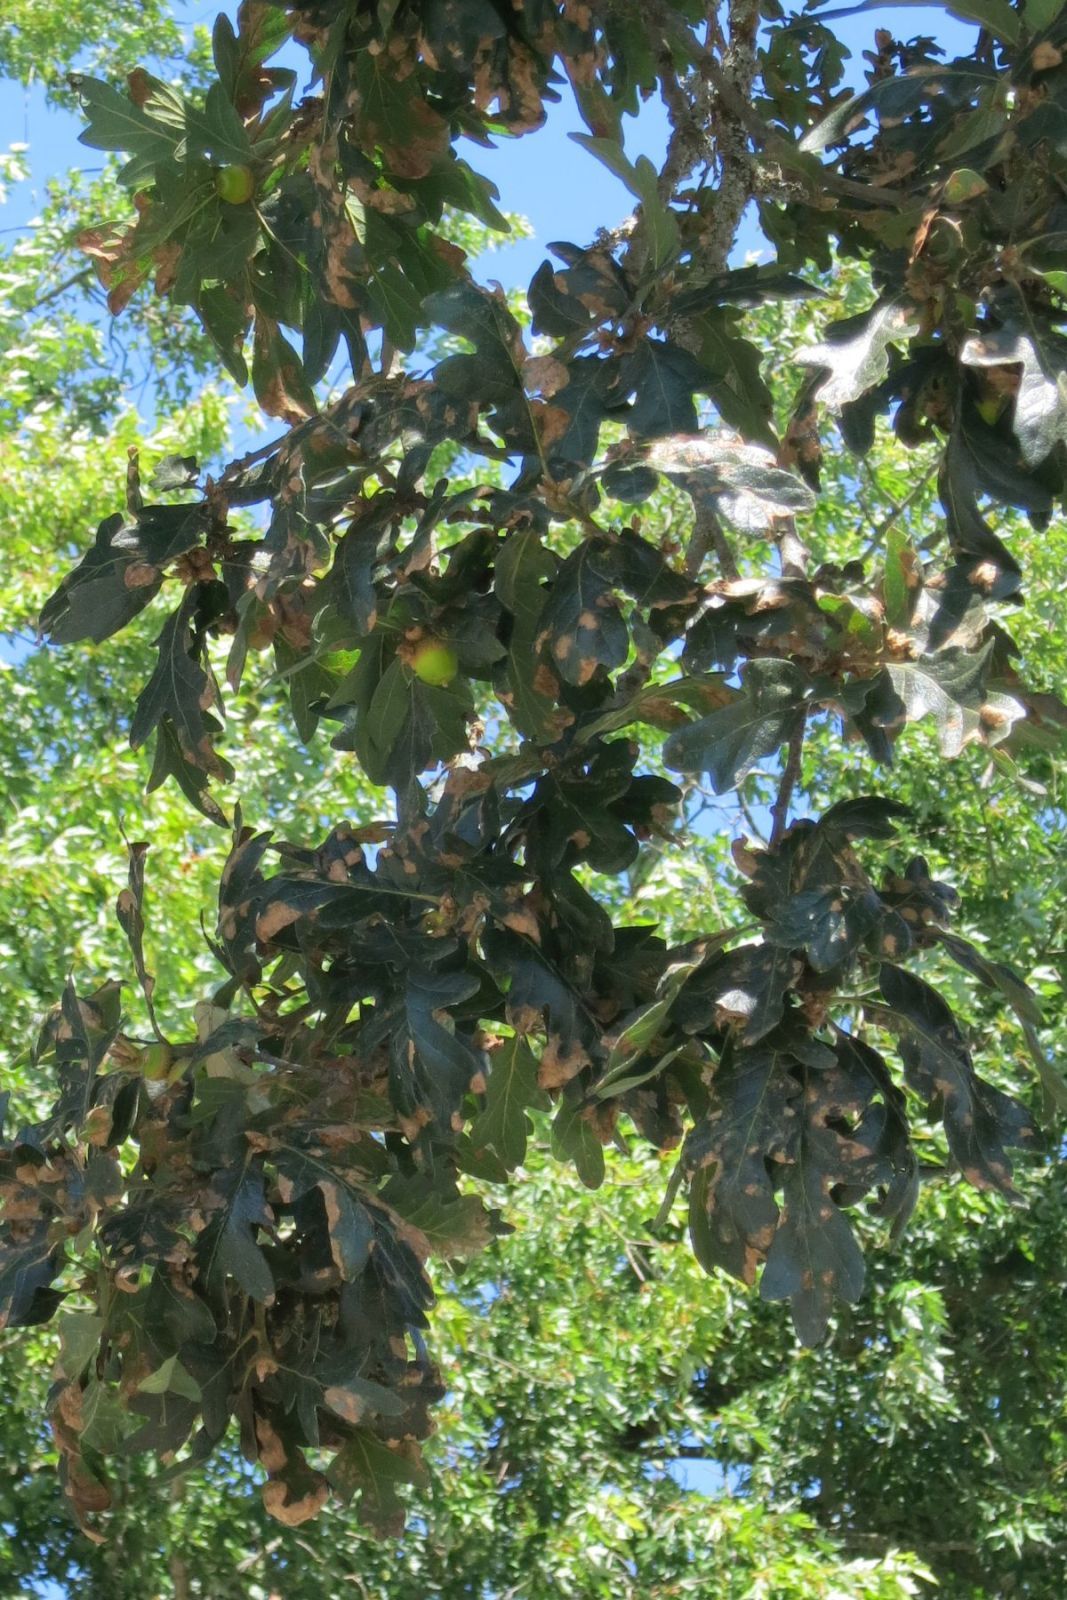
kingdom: Plantae
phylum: Tracheophyta
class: Magnoliopsida
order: Fagales
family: Fagaceae
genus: Quercus
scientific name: Quercus garryana
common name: Garry oak
